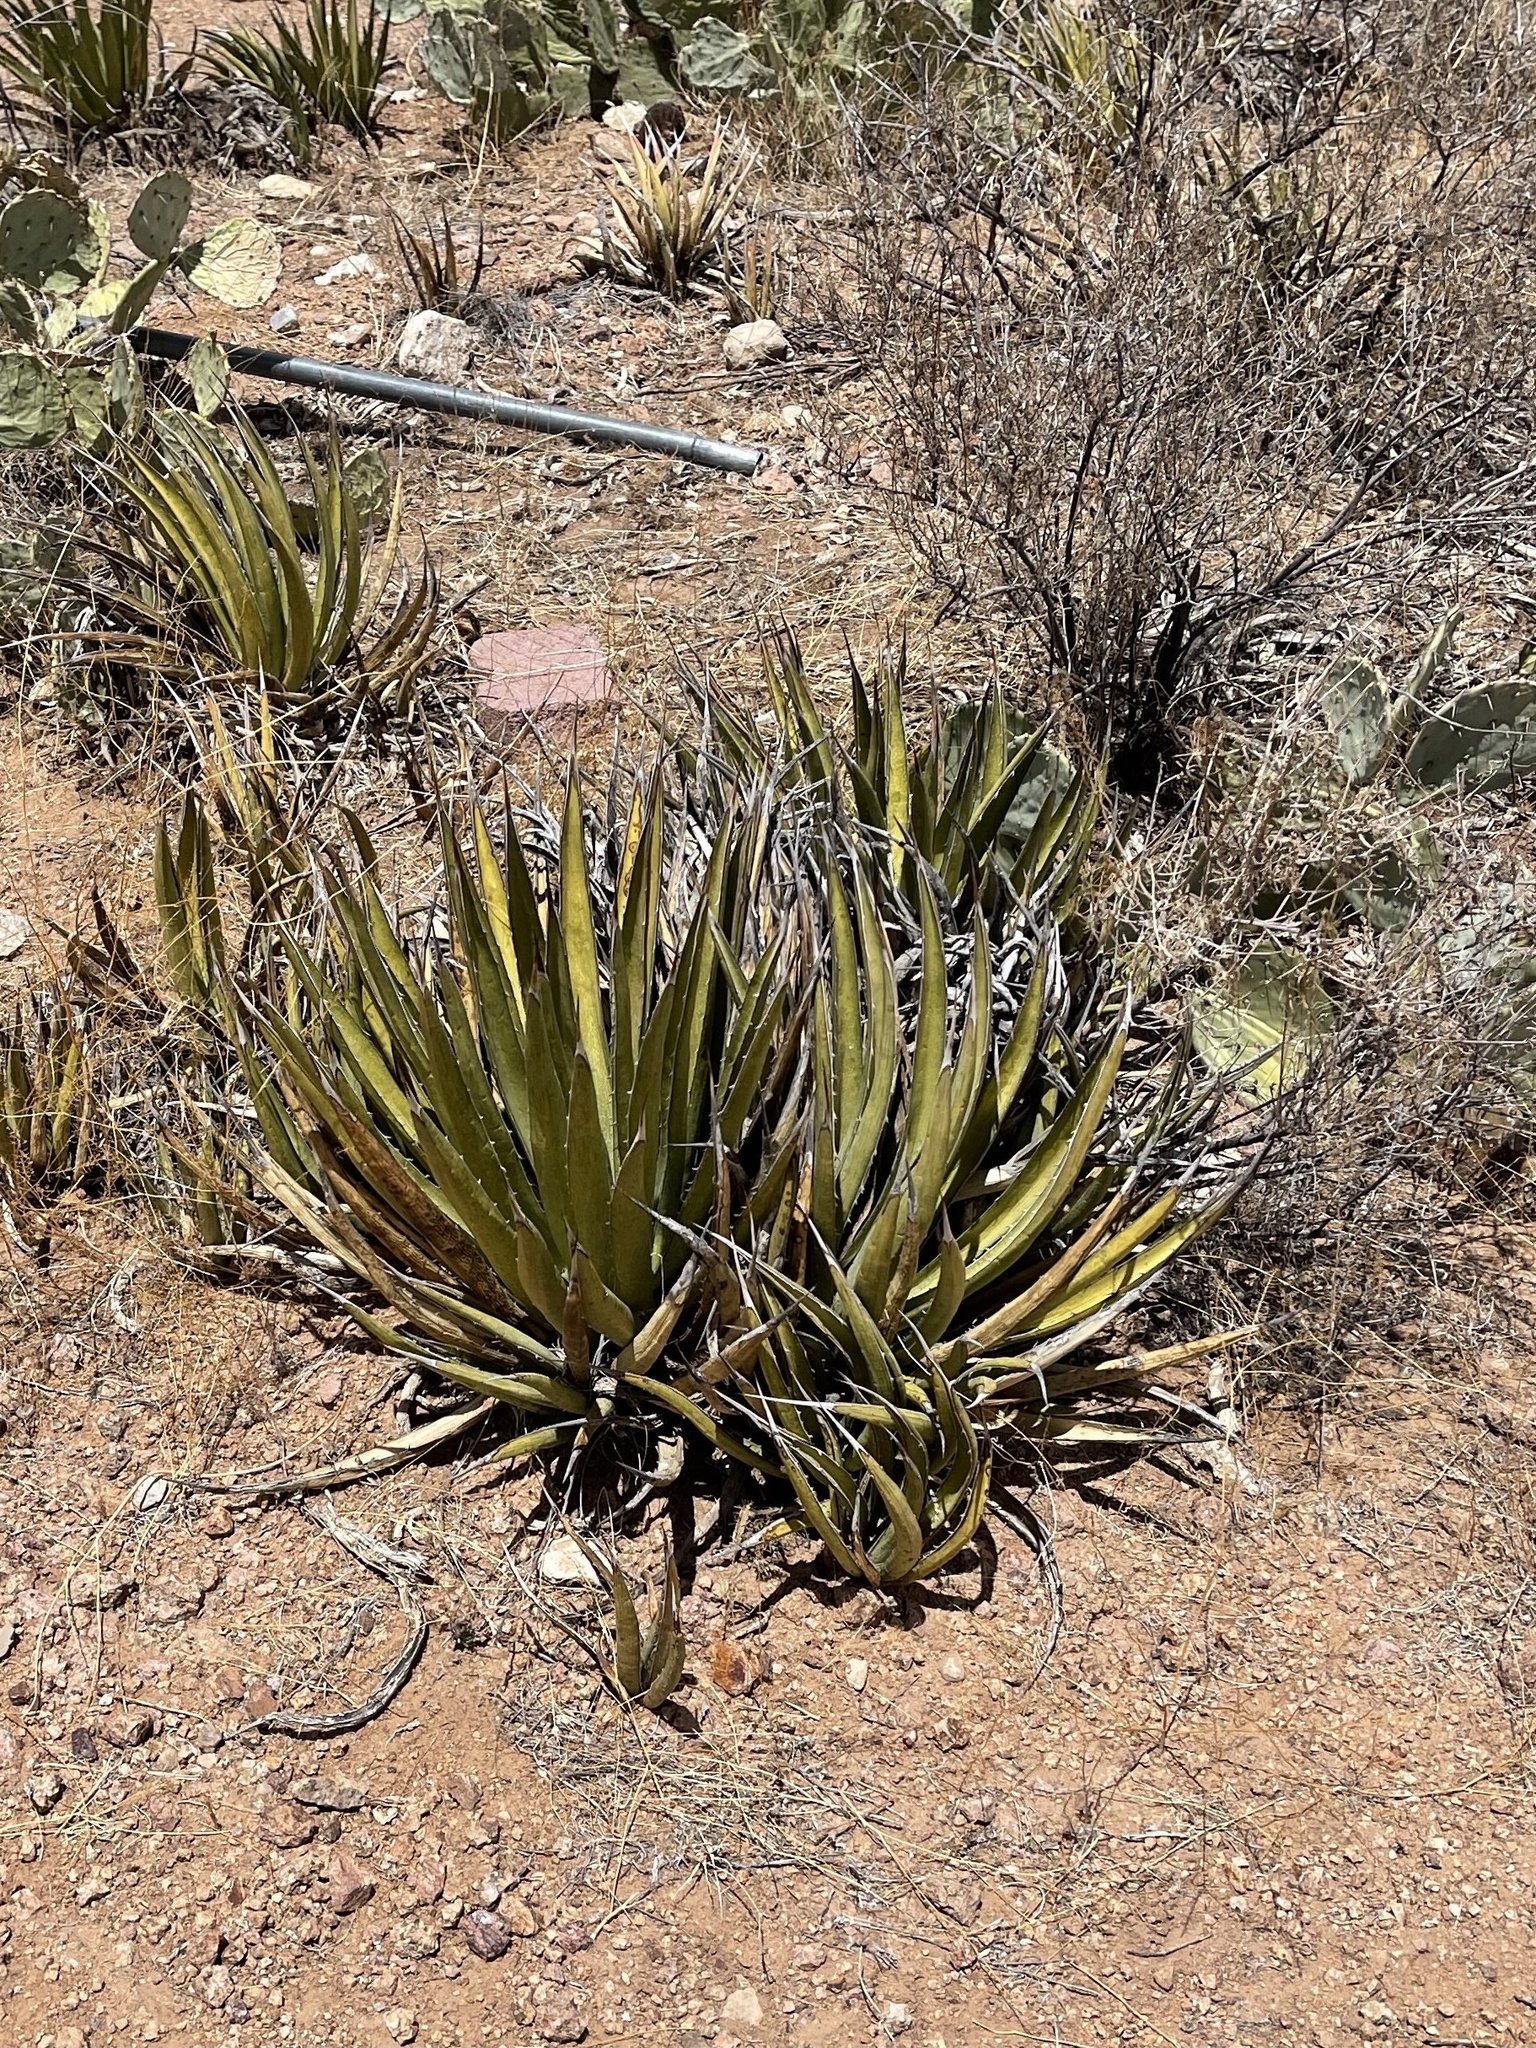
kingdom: Plantae
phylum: Tracheophyta
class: Liliopsida
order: Asparagales
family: Asparagaceae
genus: Agave
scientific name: Agave lechuguilla
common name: Lecheguilla agave
